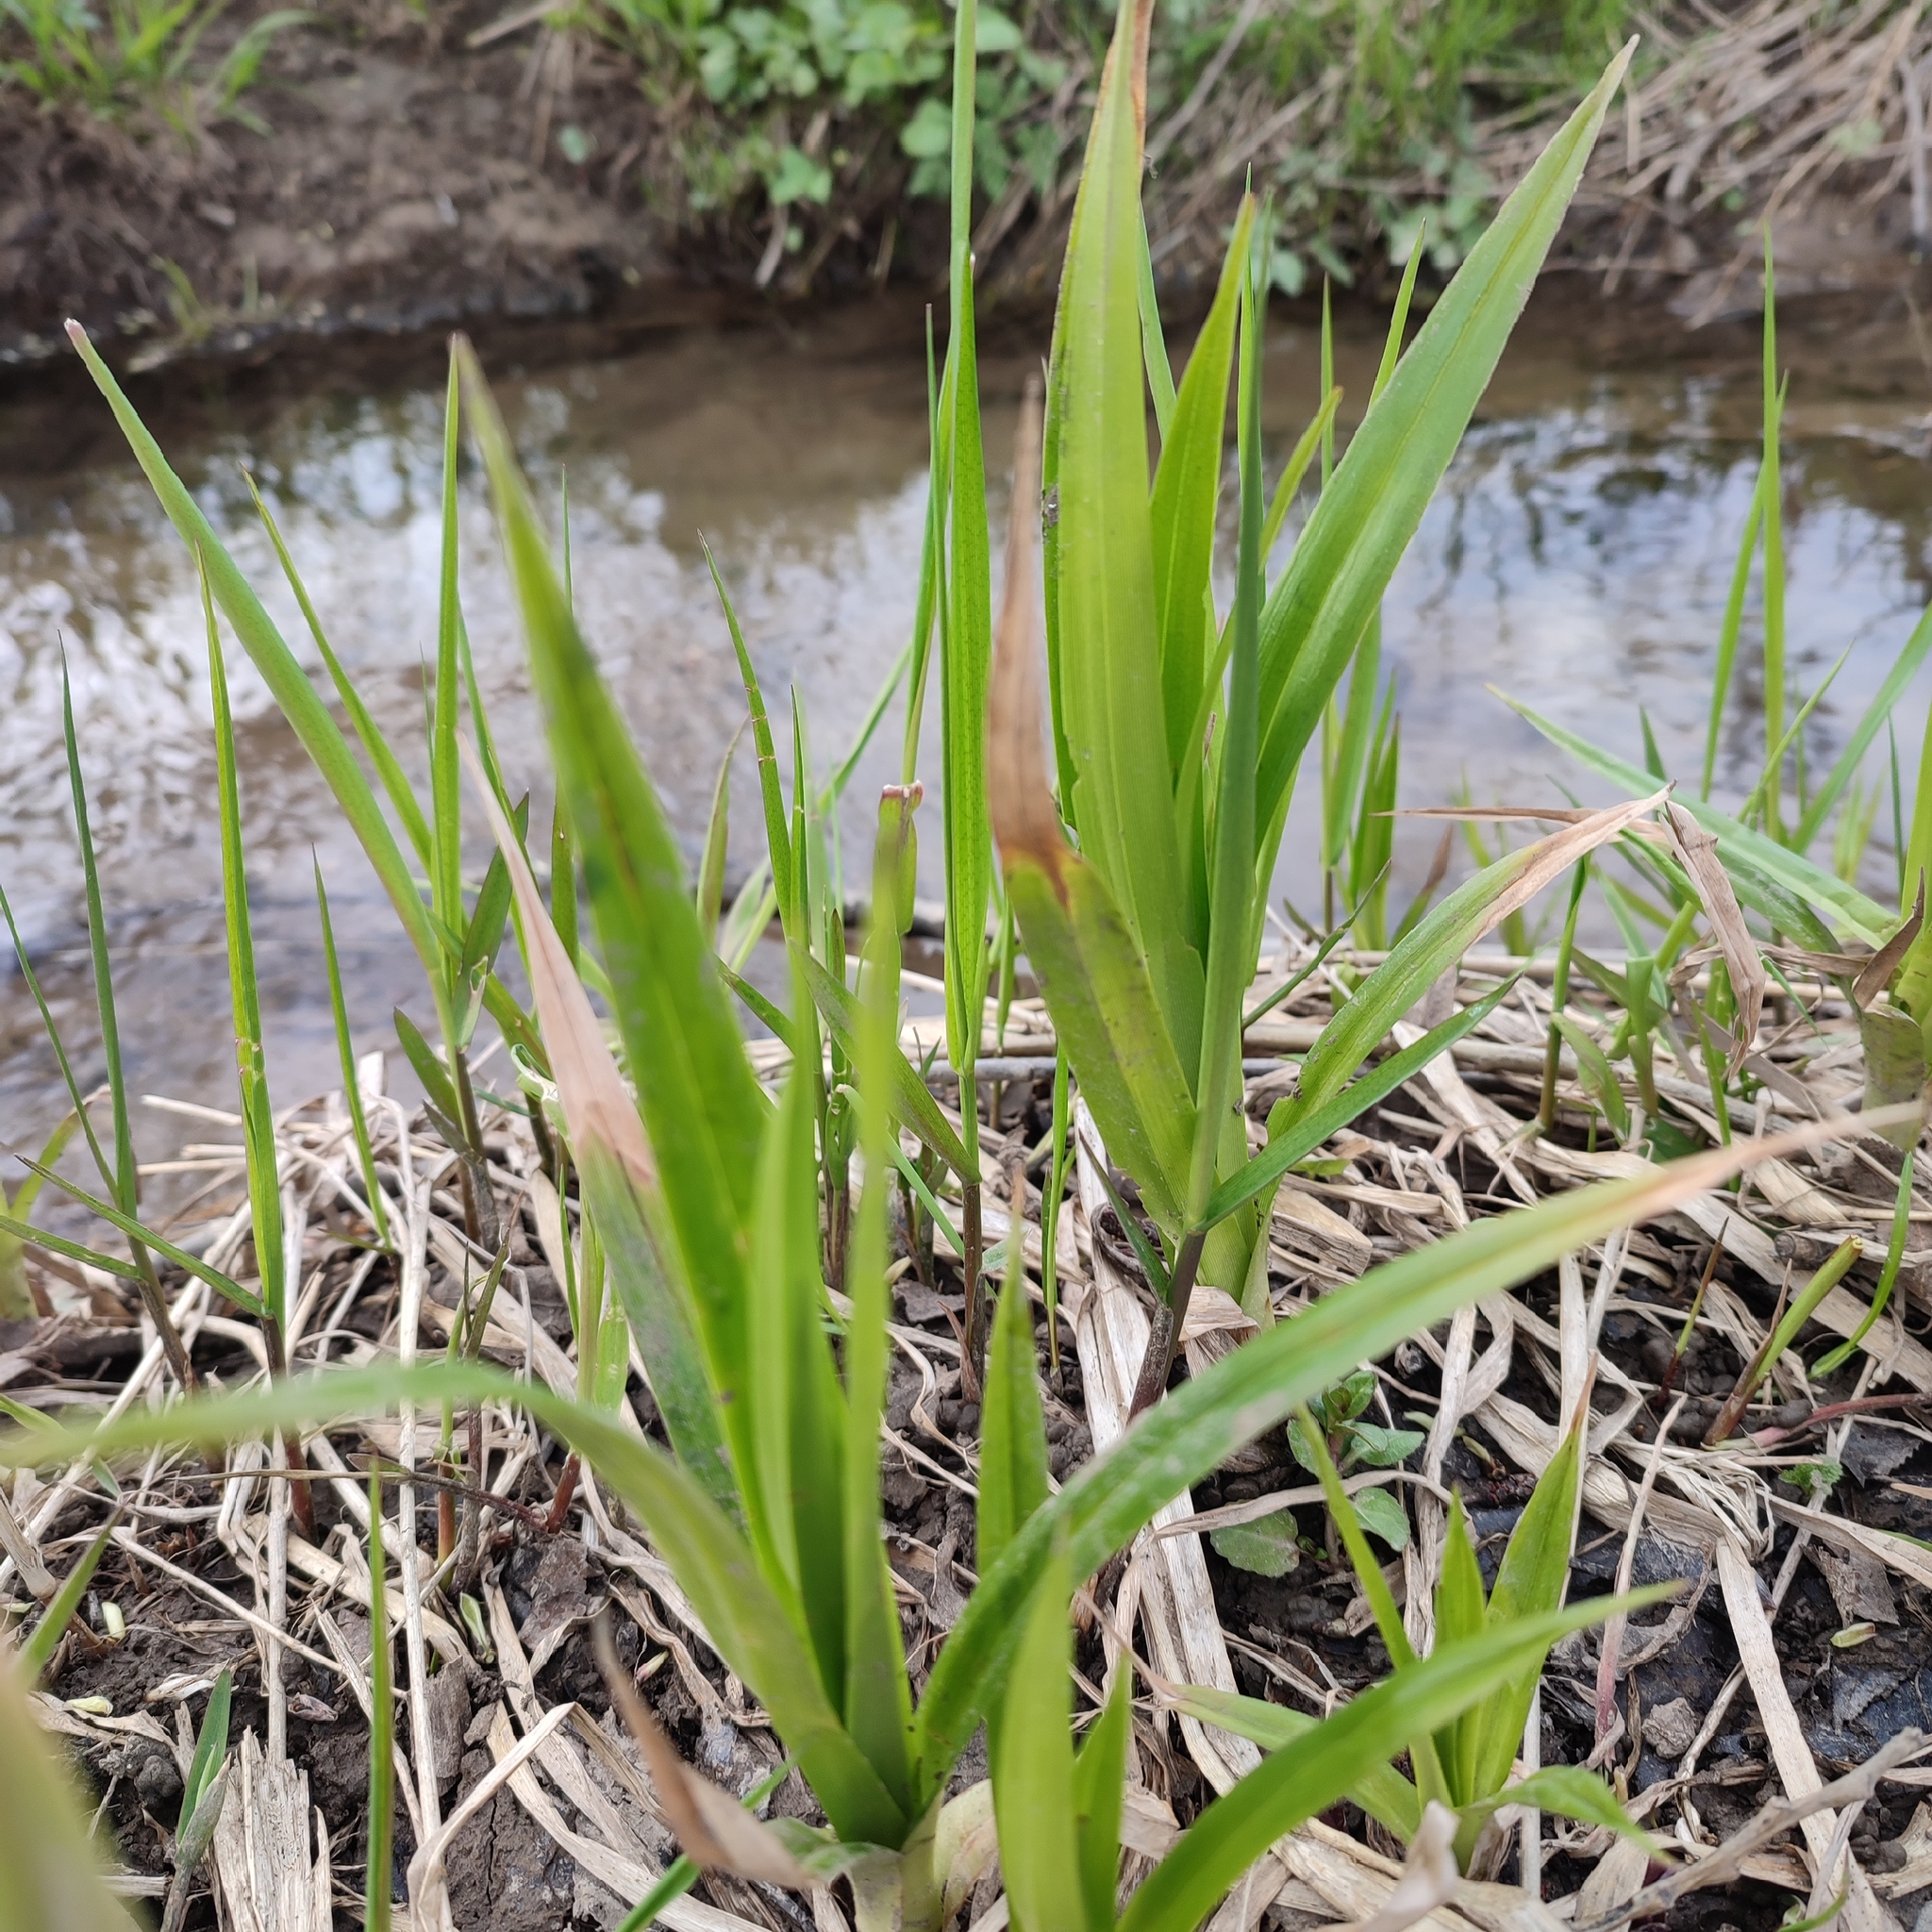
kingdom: Plantae
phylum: Tracheophyta
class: Liliopsida
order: Poales
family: Cyperaceae
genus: Scirpus
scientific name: Scirpus sylvaticus
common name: Wood club-rush
